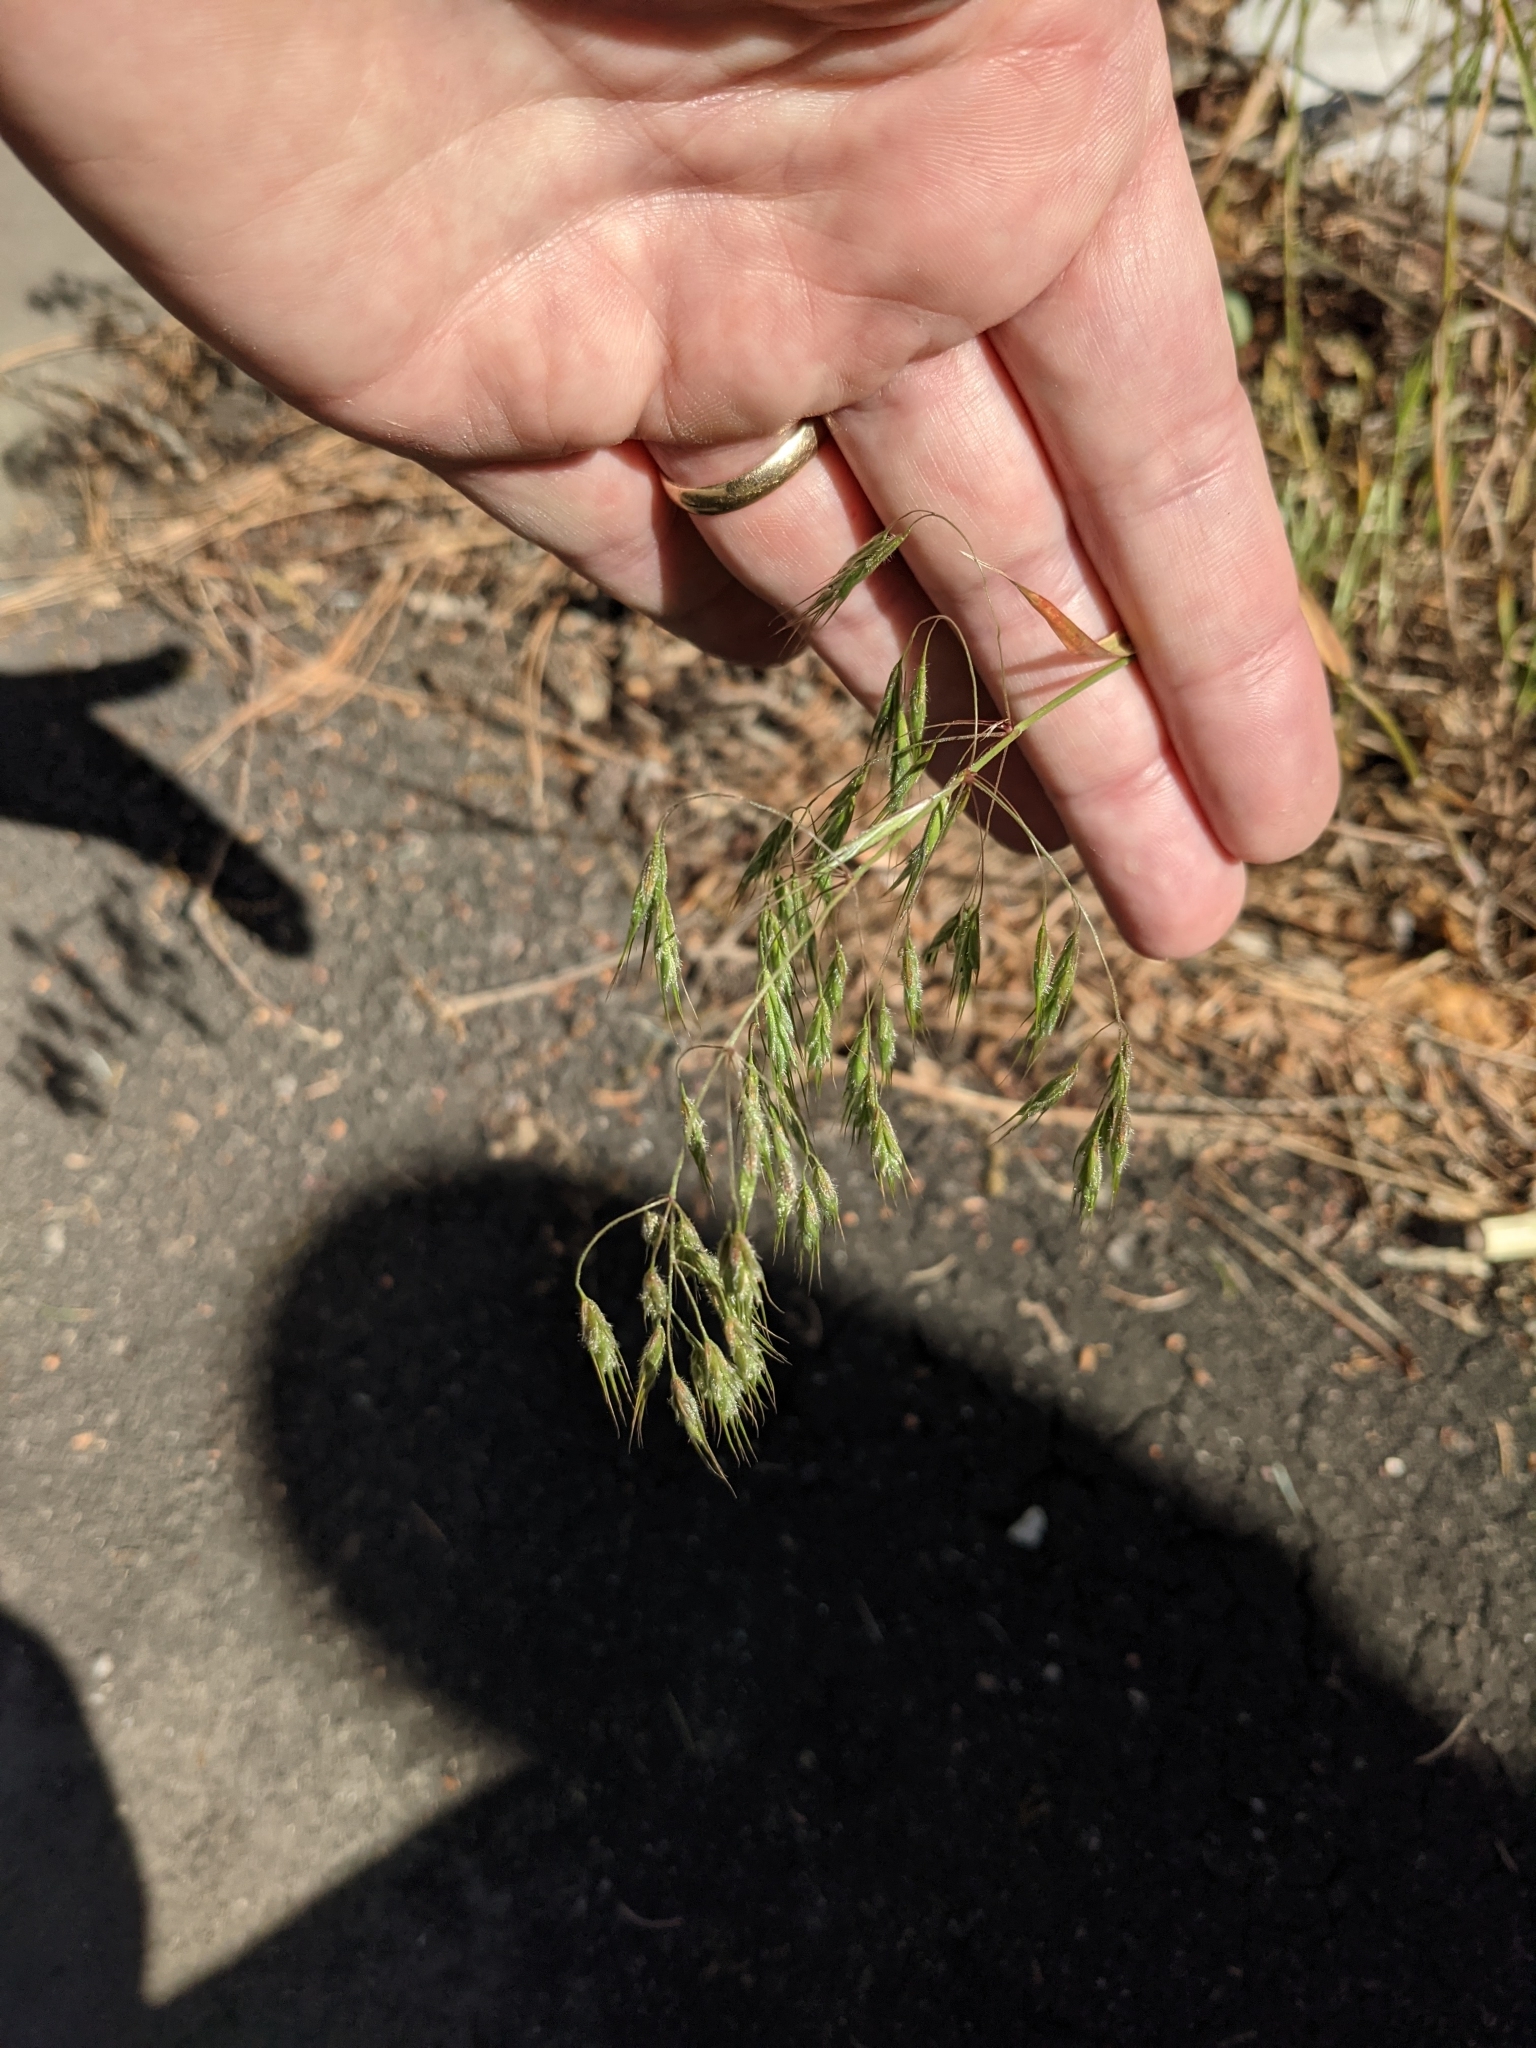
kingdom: Plantae
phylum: Tracheophyta
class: Liliopsida
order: Poales
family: Poaceae
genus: Bromus
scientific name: Bromus tectorum
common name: Cheatgrass
